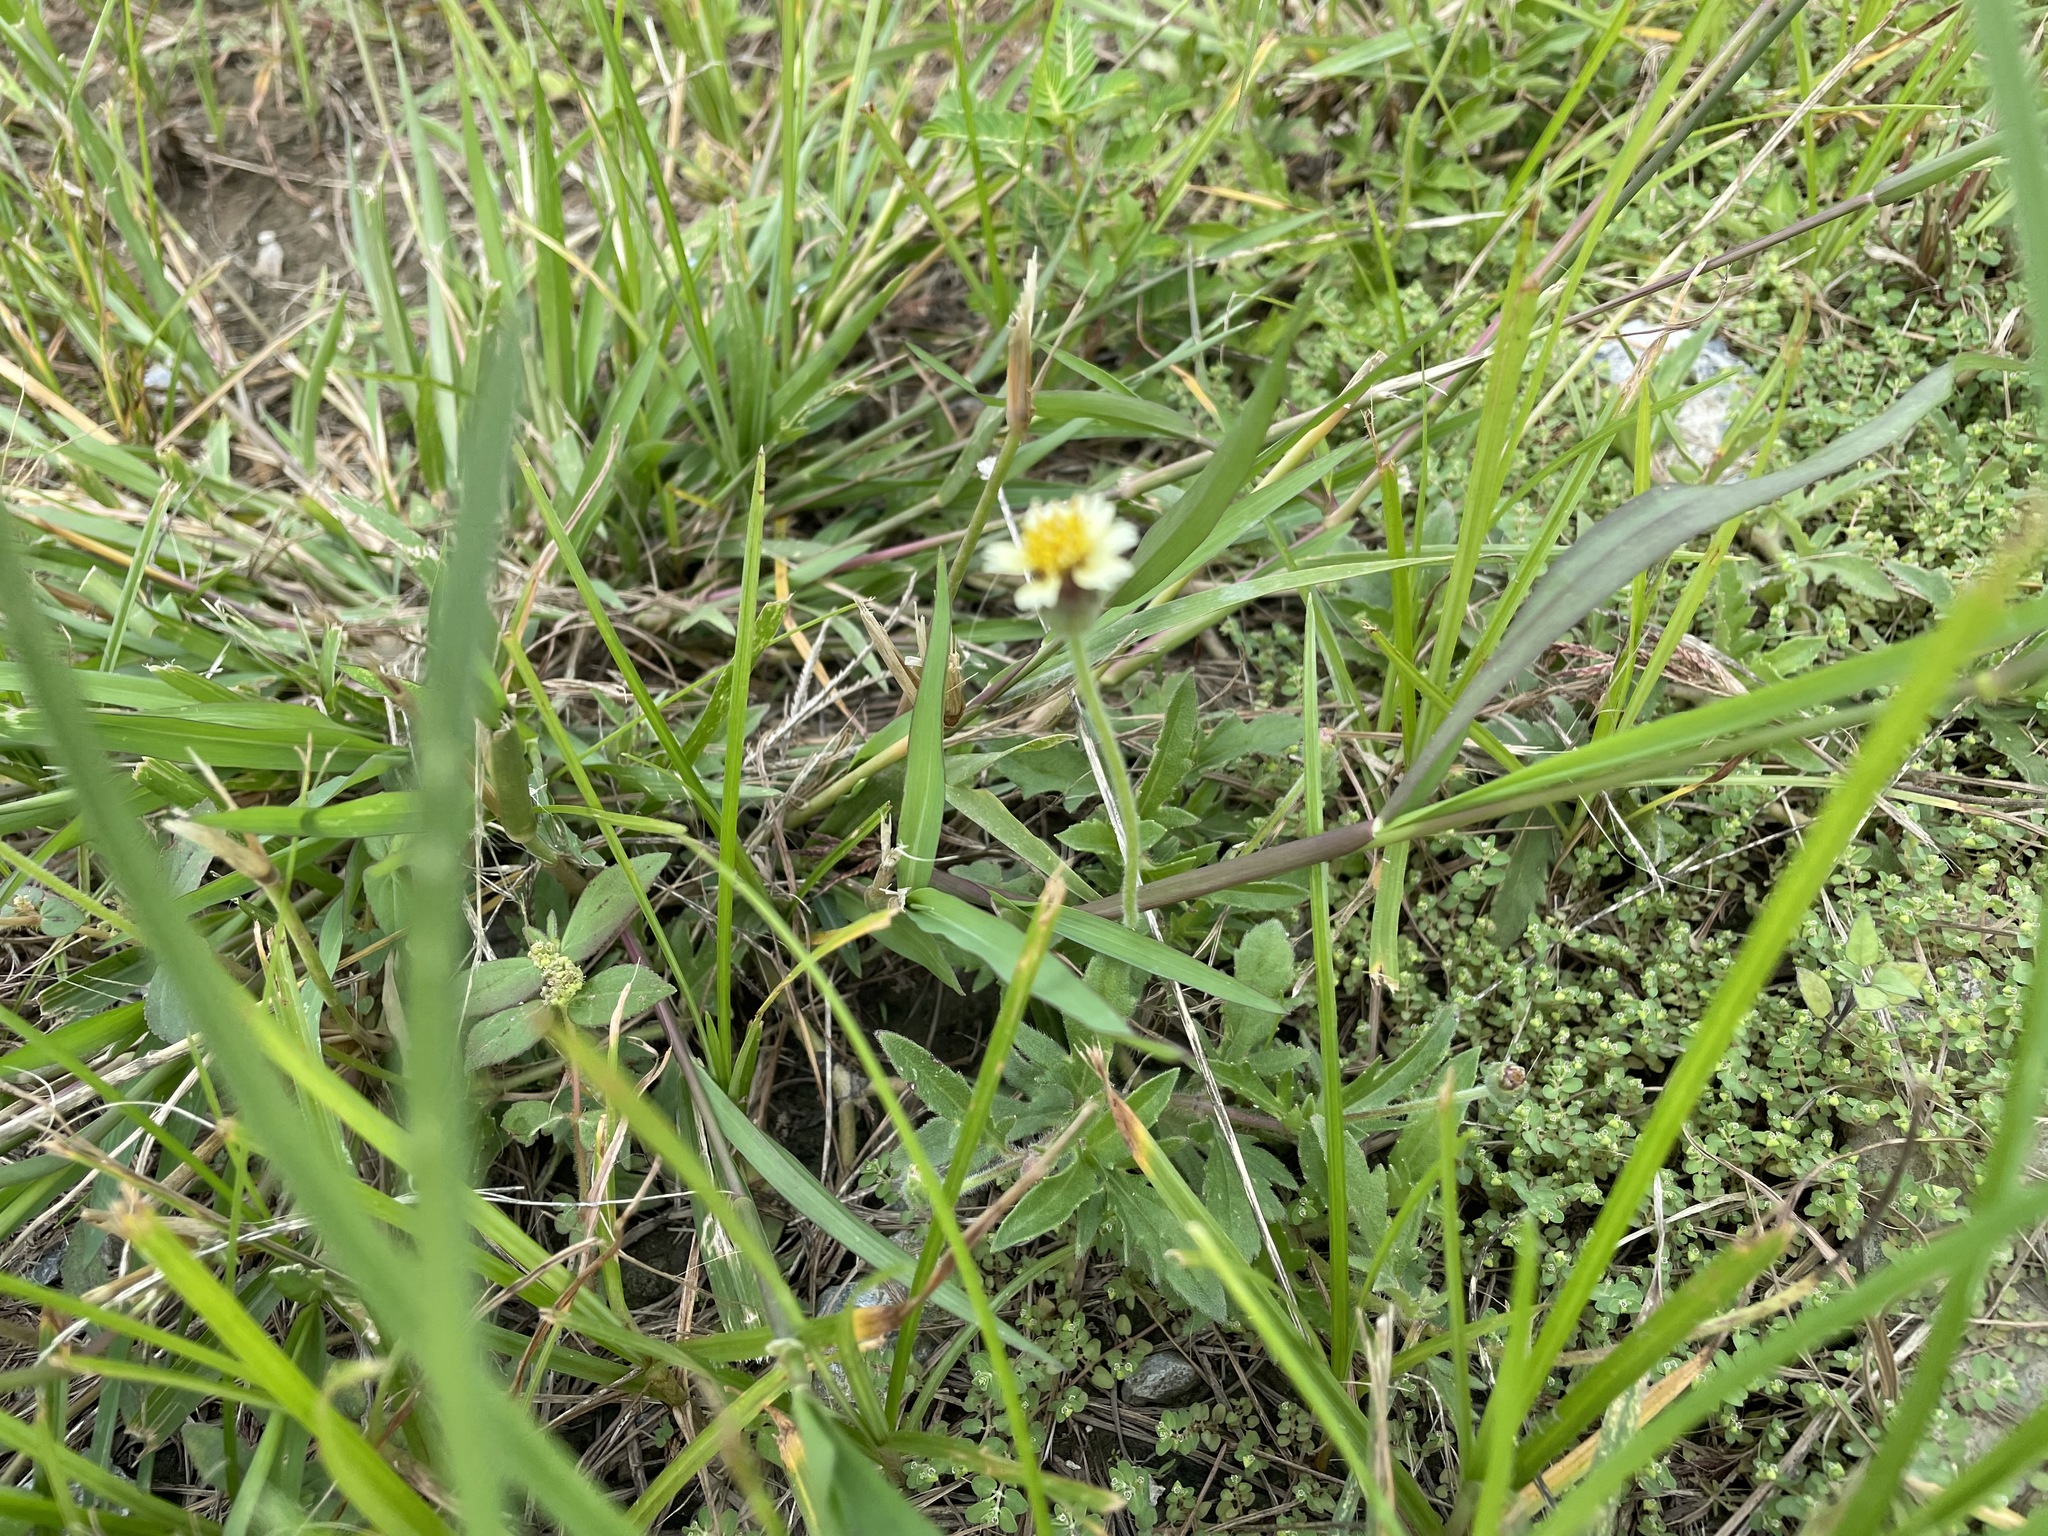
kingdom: Plantae
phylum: Tracheophyta
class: Magnoliopsida
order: Asterales
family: Asteraceae
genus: Tridax
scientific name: Tridax procumbens
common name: Coatbuttons
